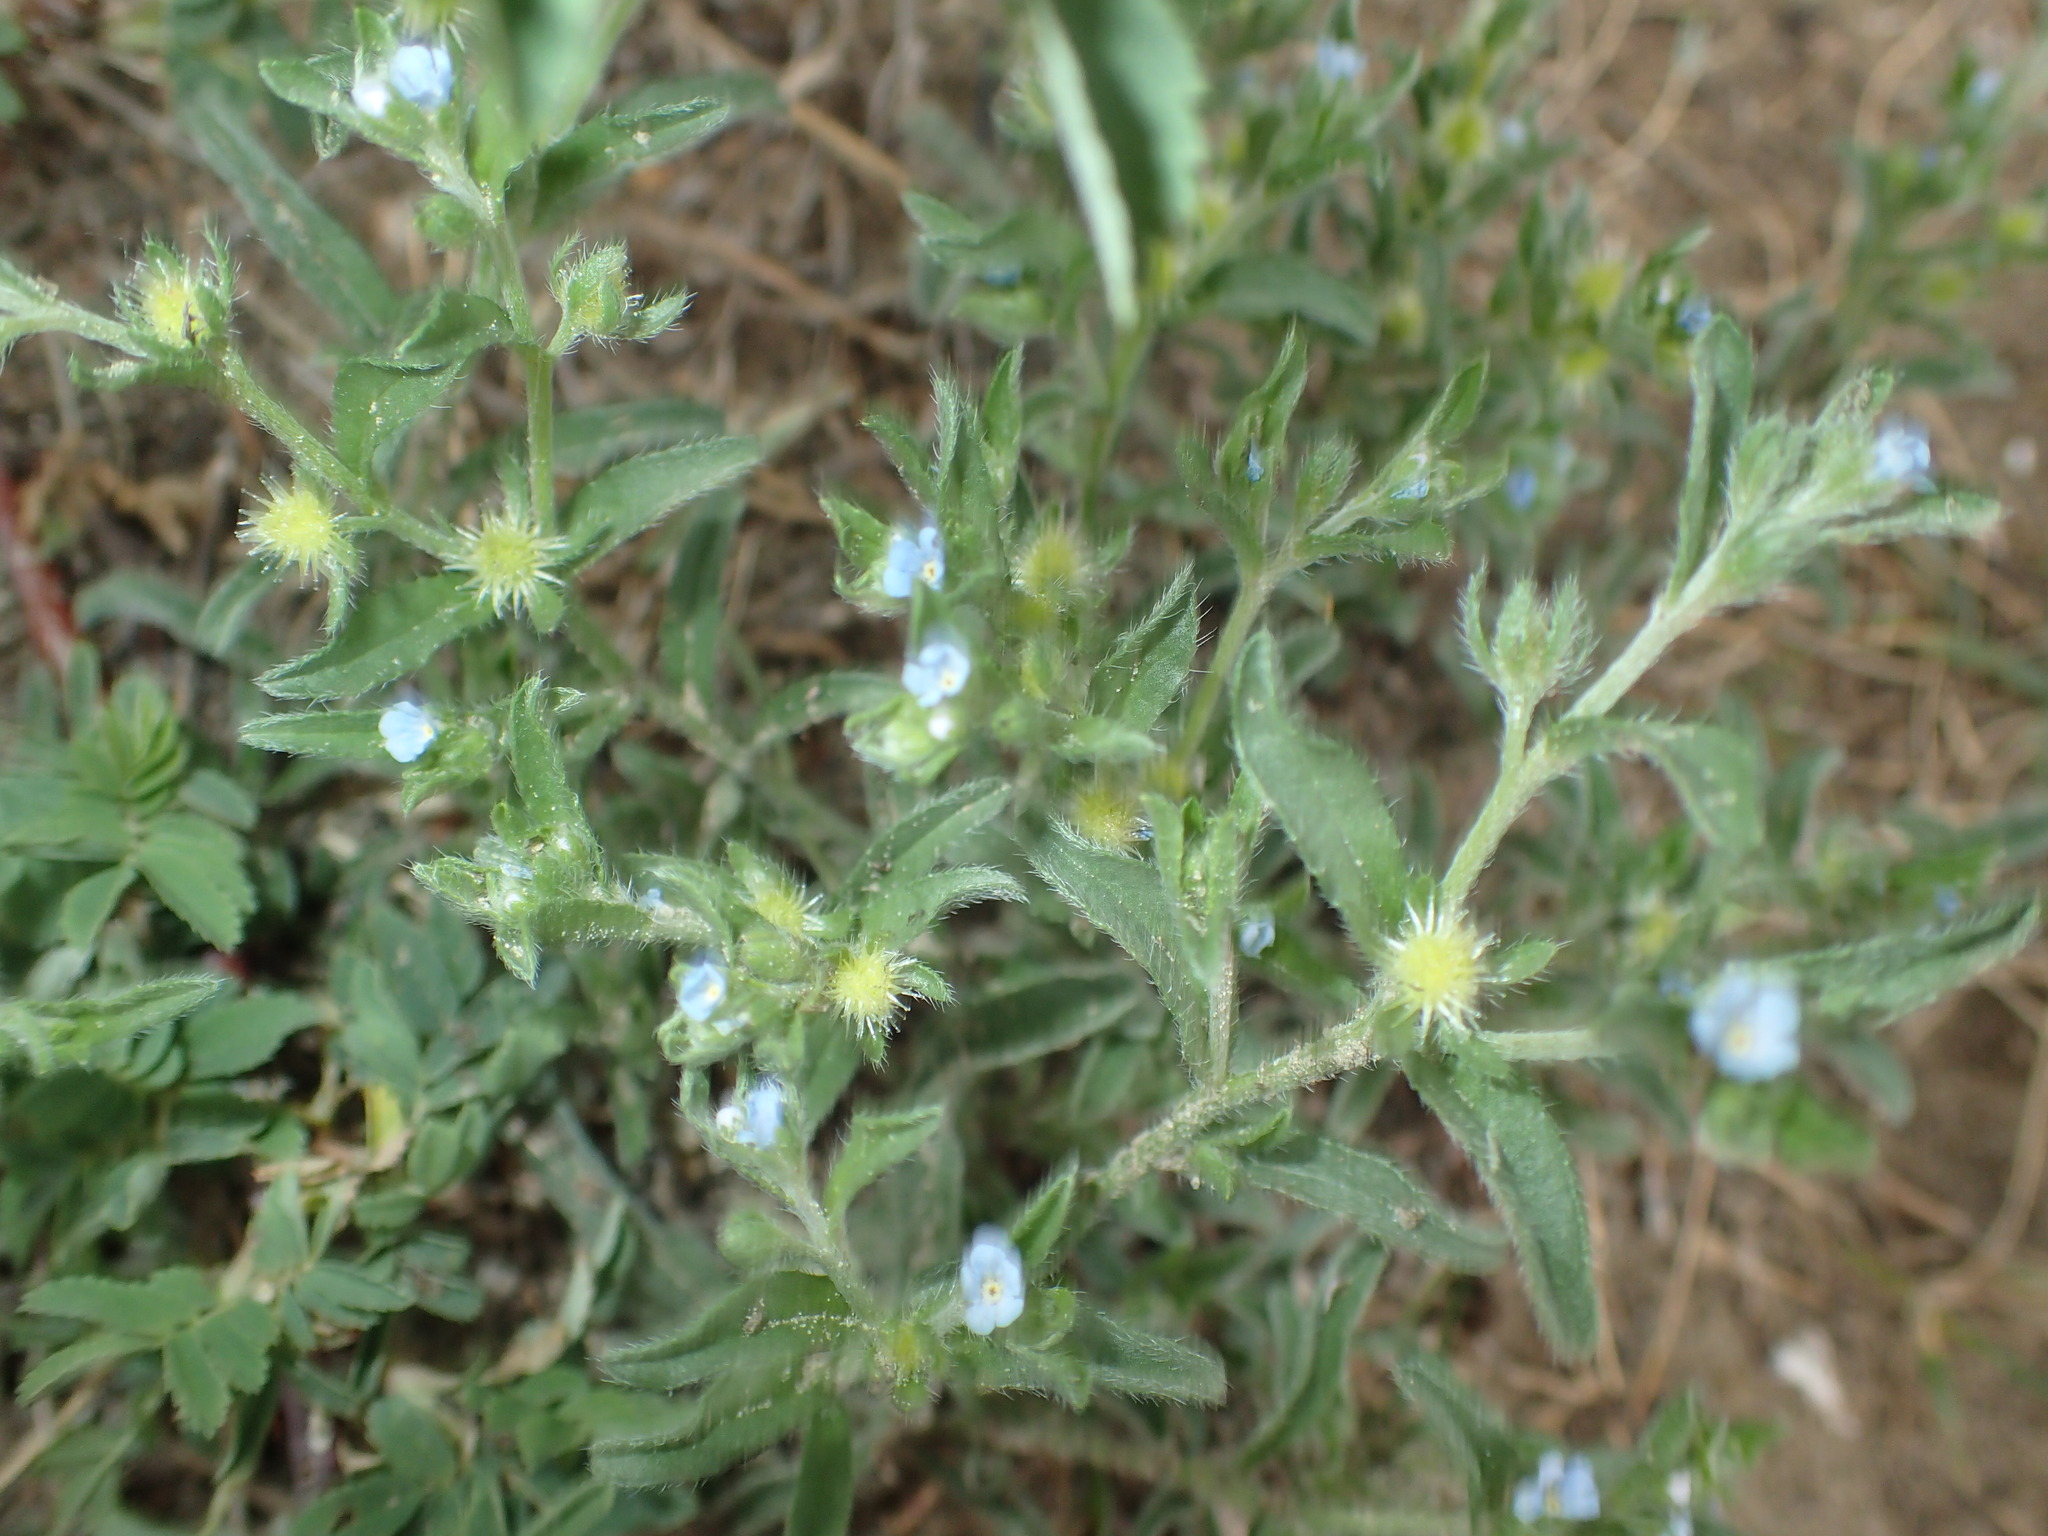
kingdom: Plantae
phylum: Tracheophyta
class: Magnoliopsida
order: Boraginales
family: Boraginaceae
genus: Lappula
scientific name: Lappula occidentalis
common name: Western stickseed
